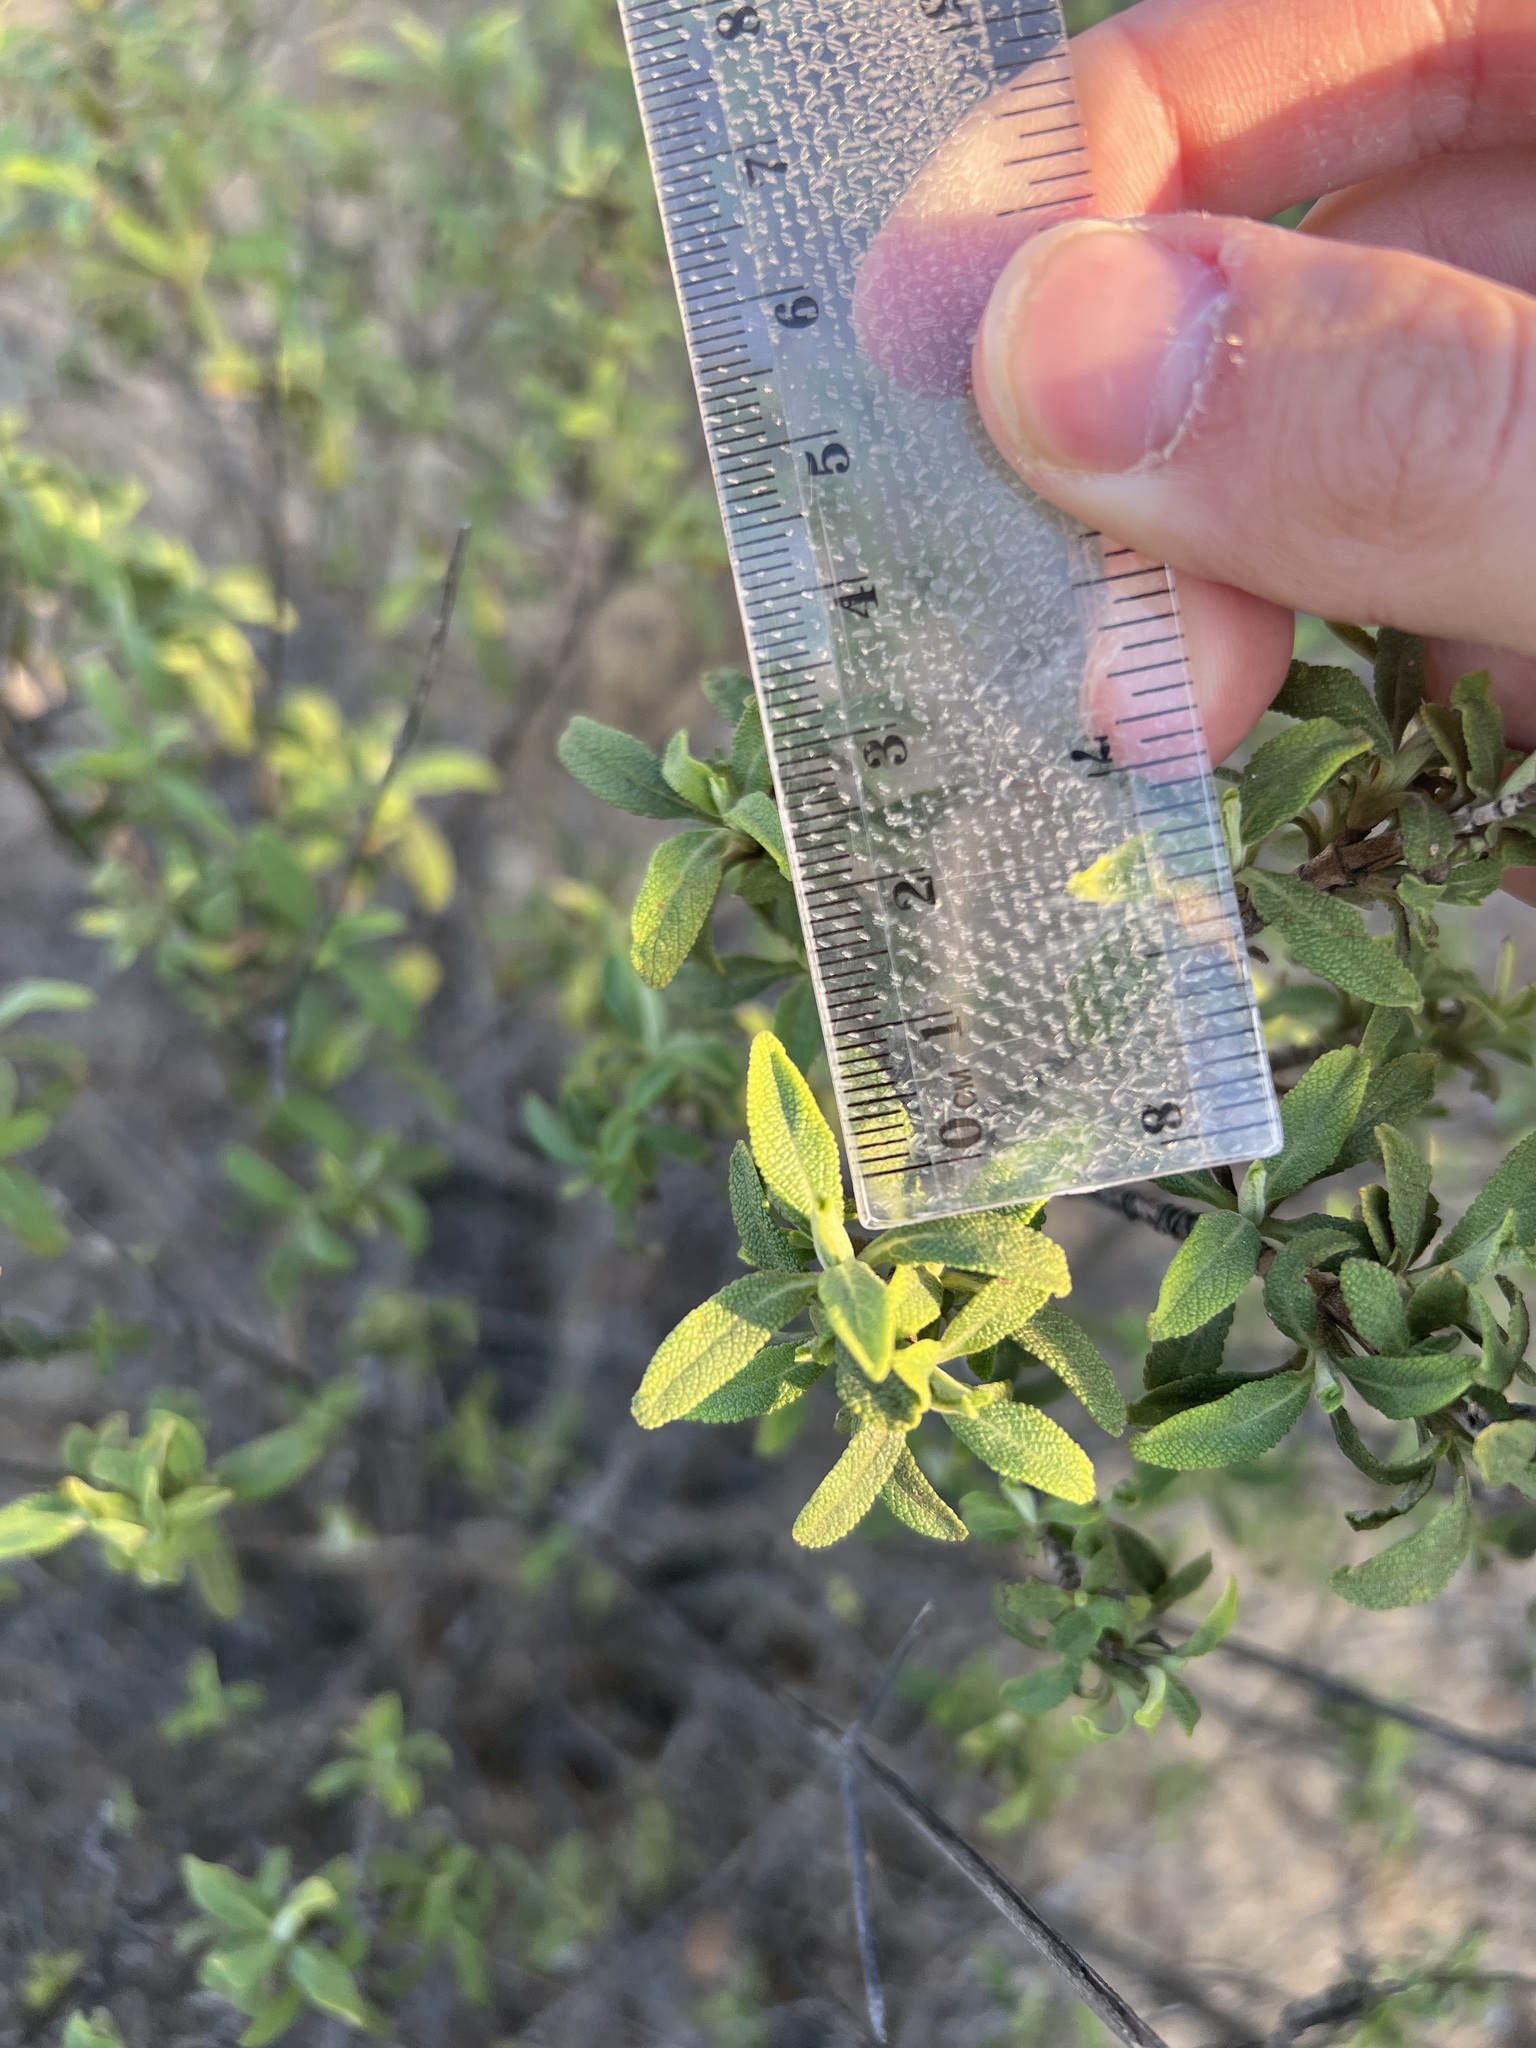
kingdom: Plantae
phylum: Tracheophyta
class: Magnoliopsida
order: Lamiales
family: Lamiaceae
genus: Salvia
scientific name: Salvia mellifera
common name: Black sage
